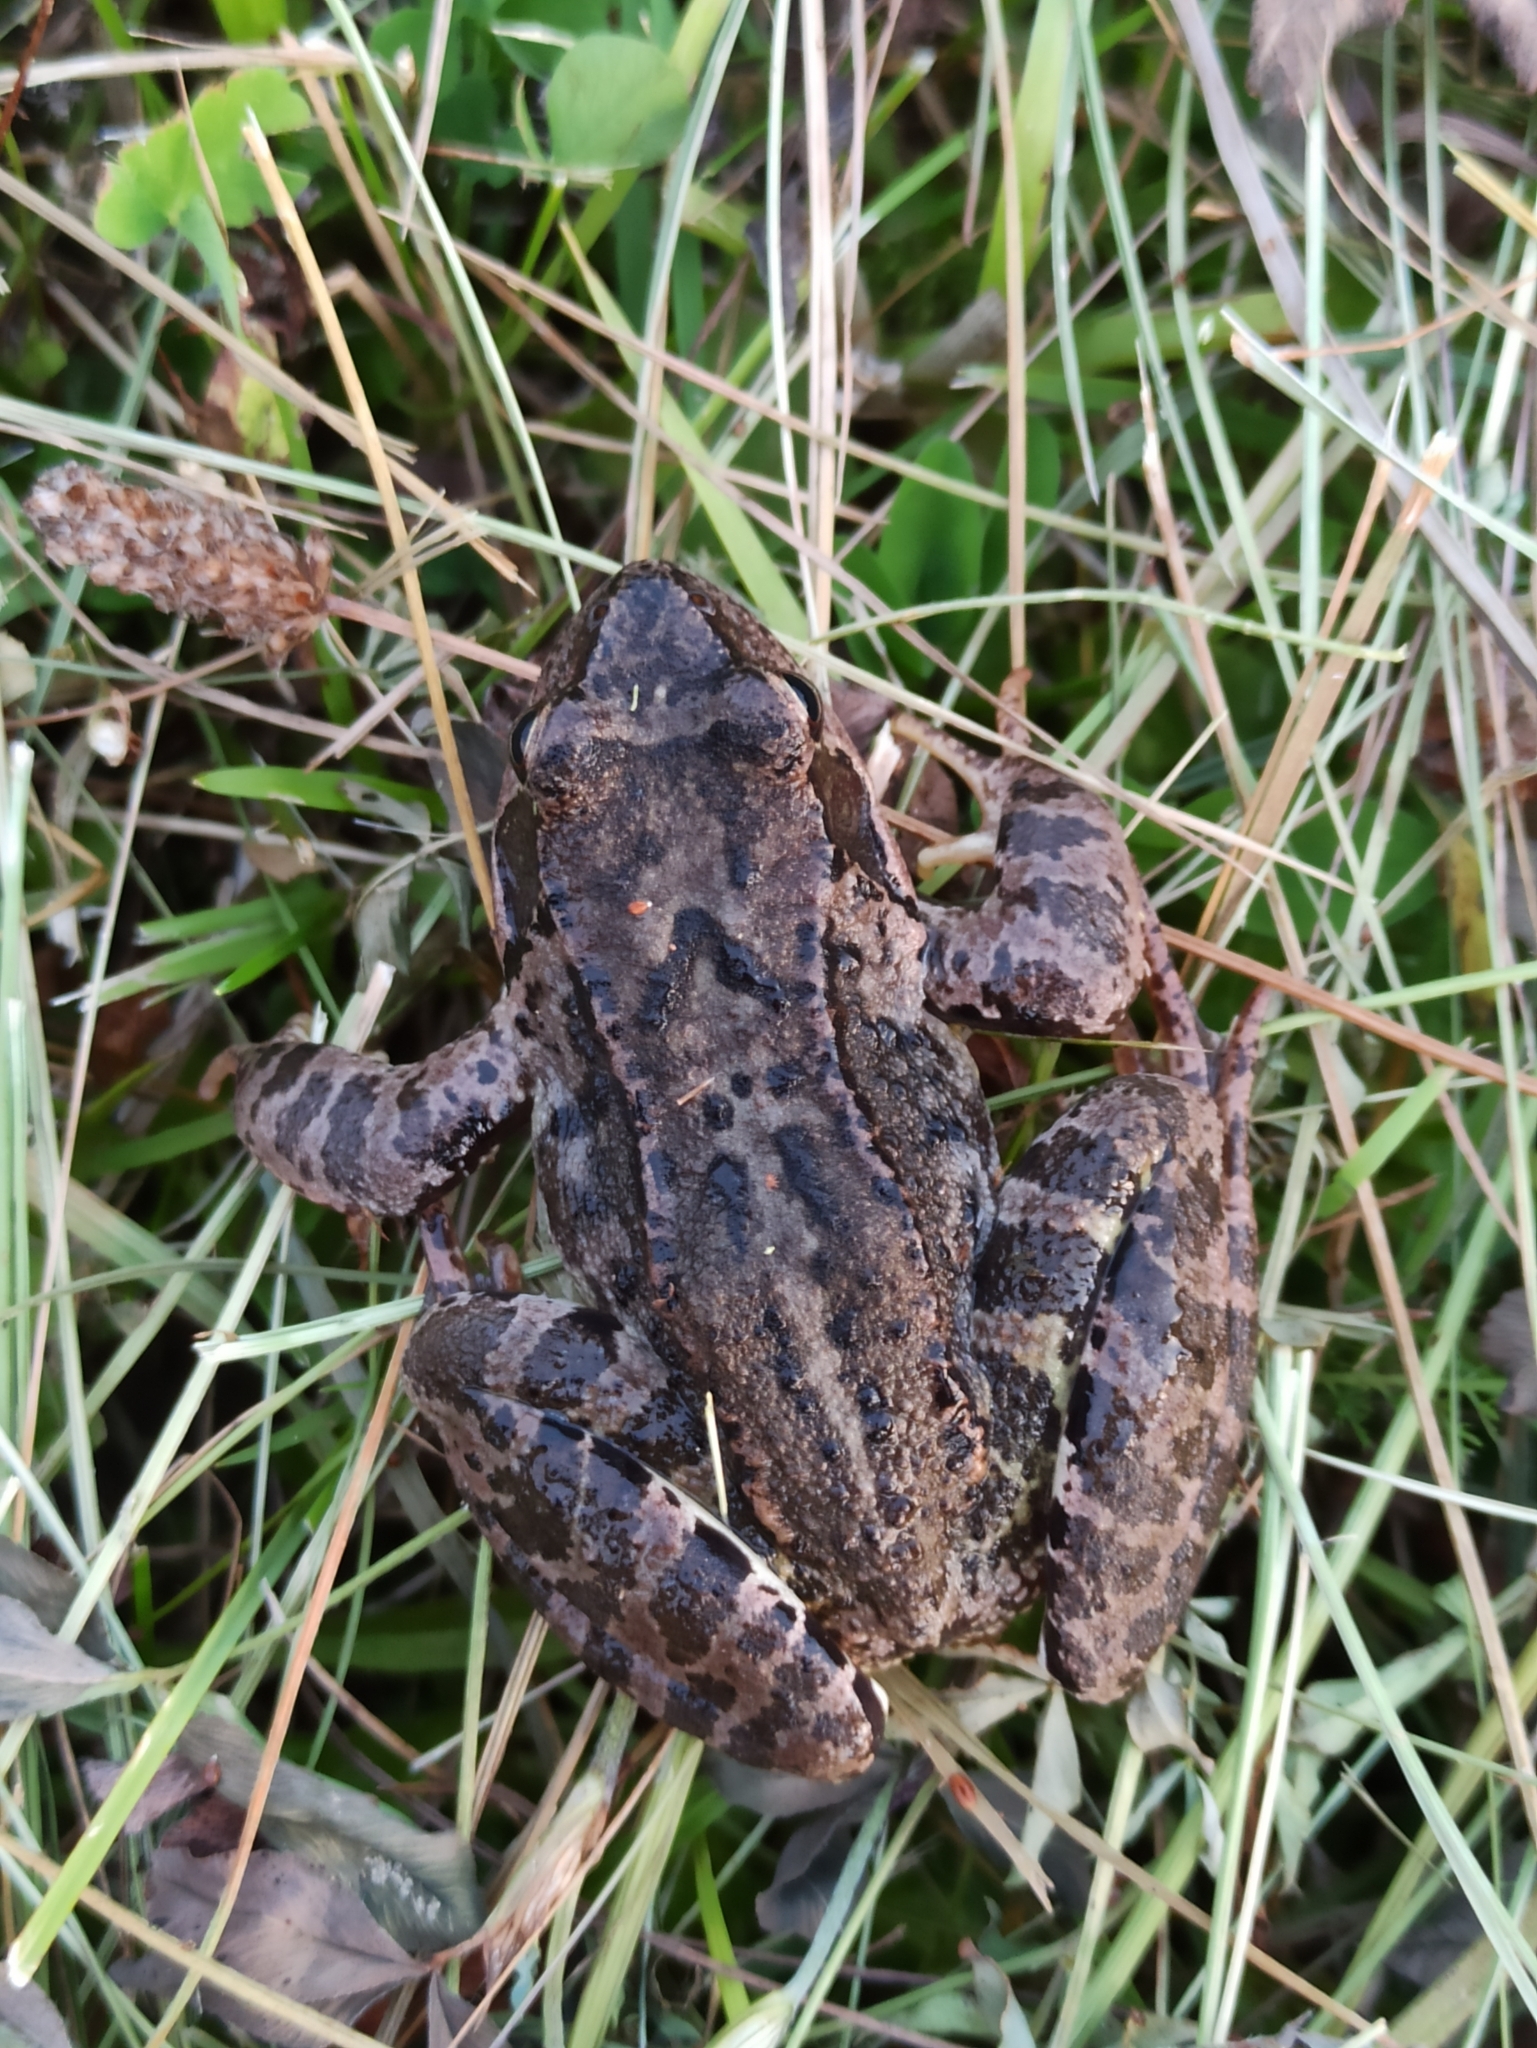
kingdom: Animalia
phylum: Chordata
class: Amphibia
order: Anura
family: Ranidae
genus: Rana
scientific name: Rana temporaria
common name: Common frog
